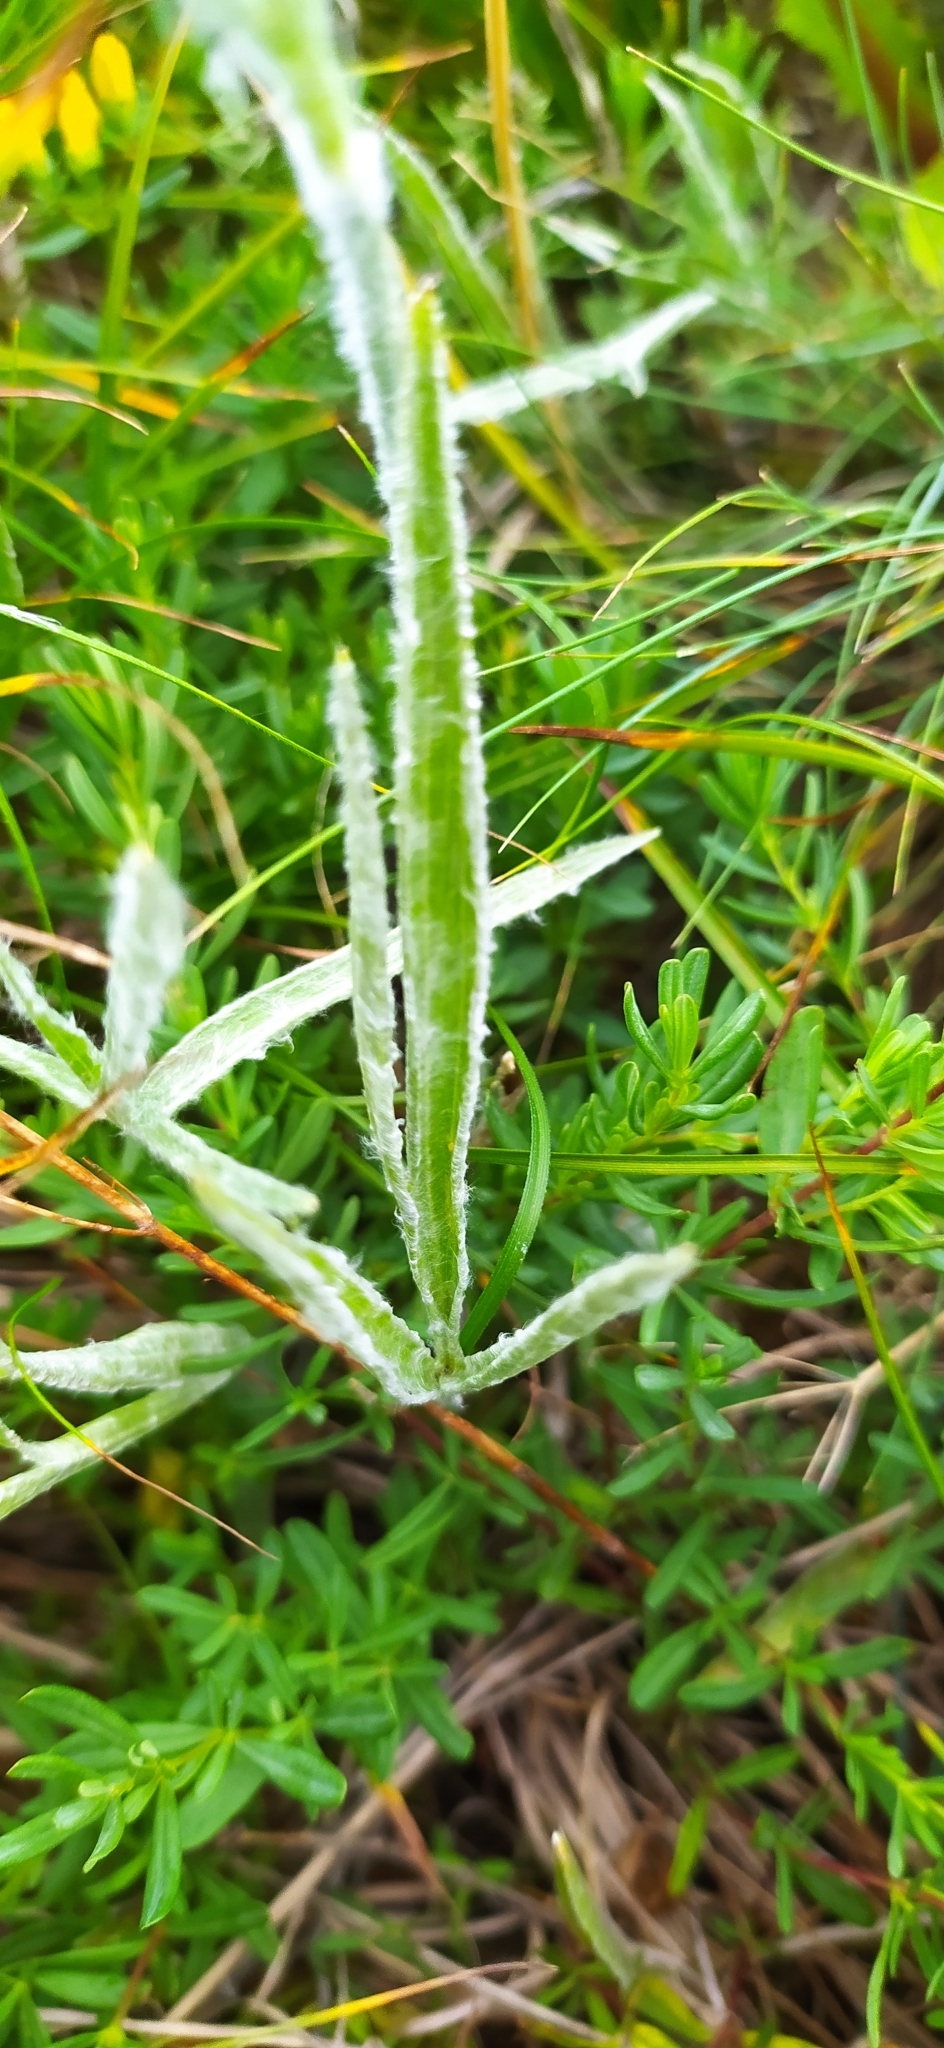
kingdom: Plantae
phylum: Tracheophyta
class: Magnoliopsida
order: Ranunculales
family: Ranunculaceae
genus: Ranunculus
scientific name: Ranunculus illyricus
